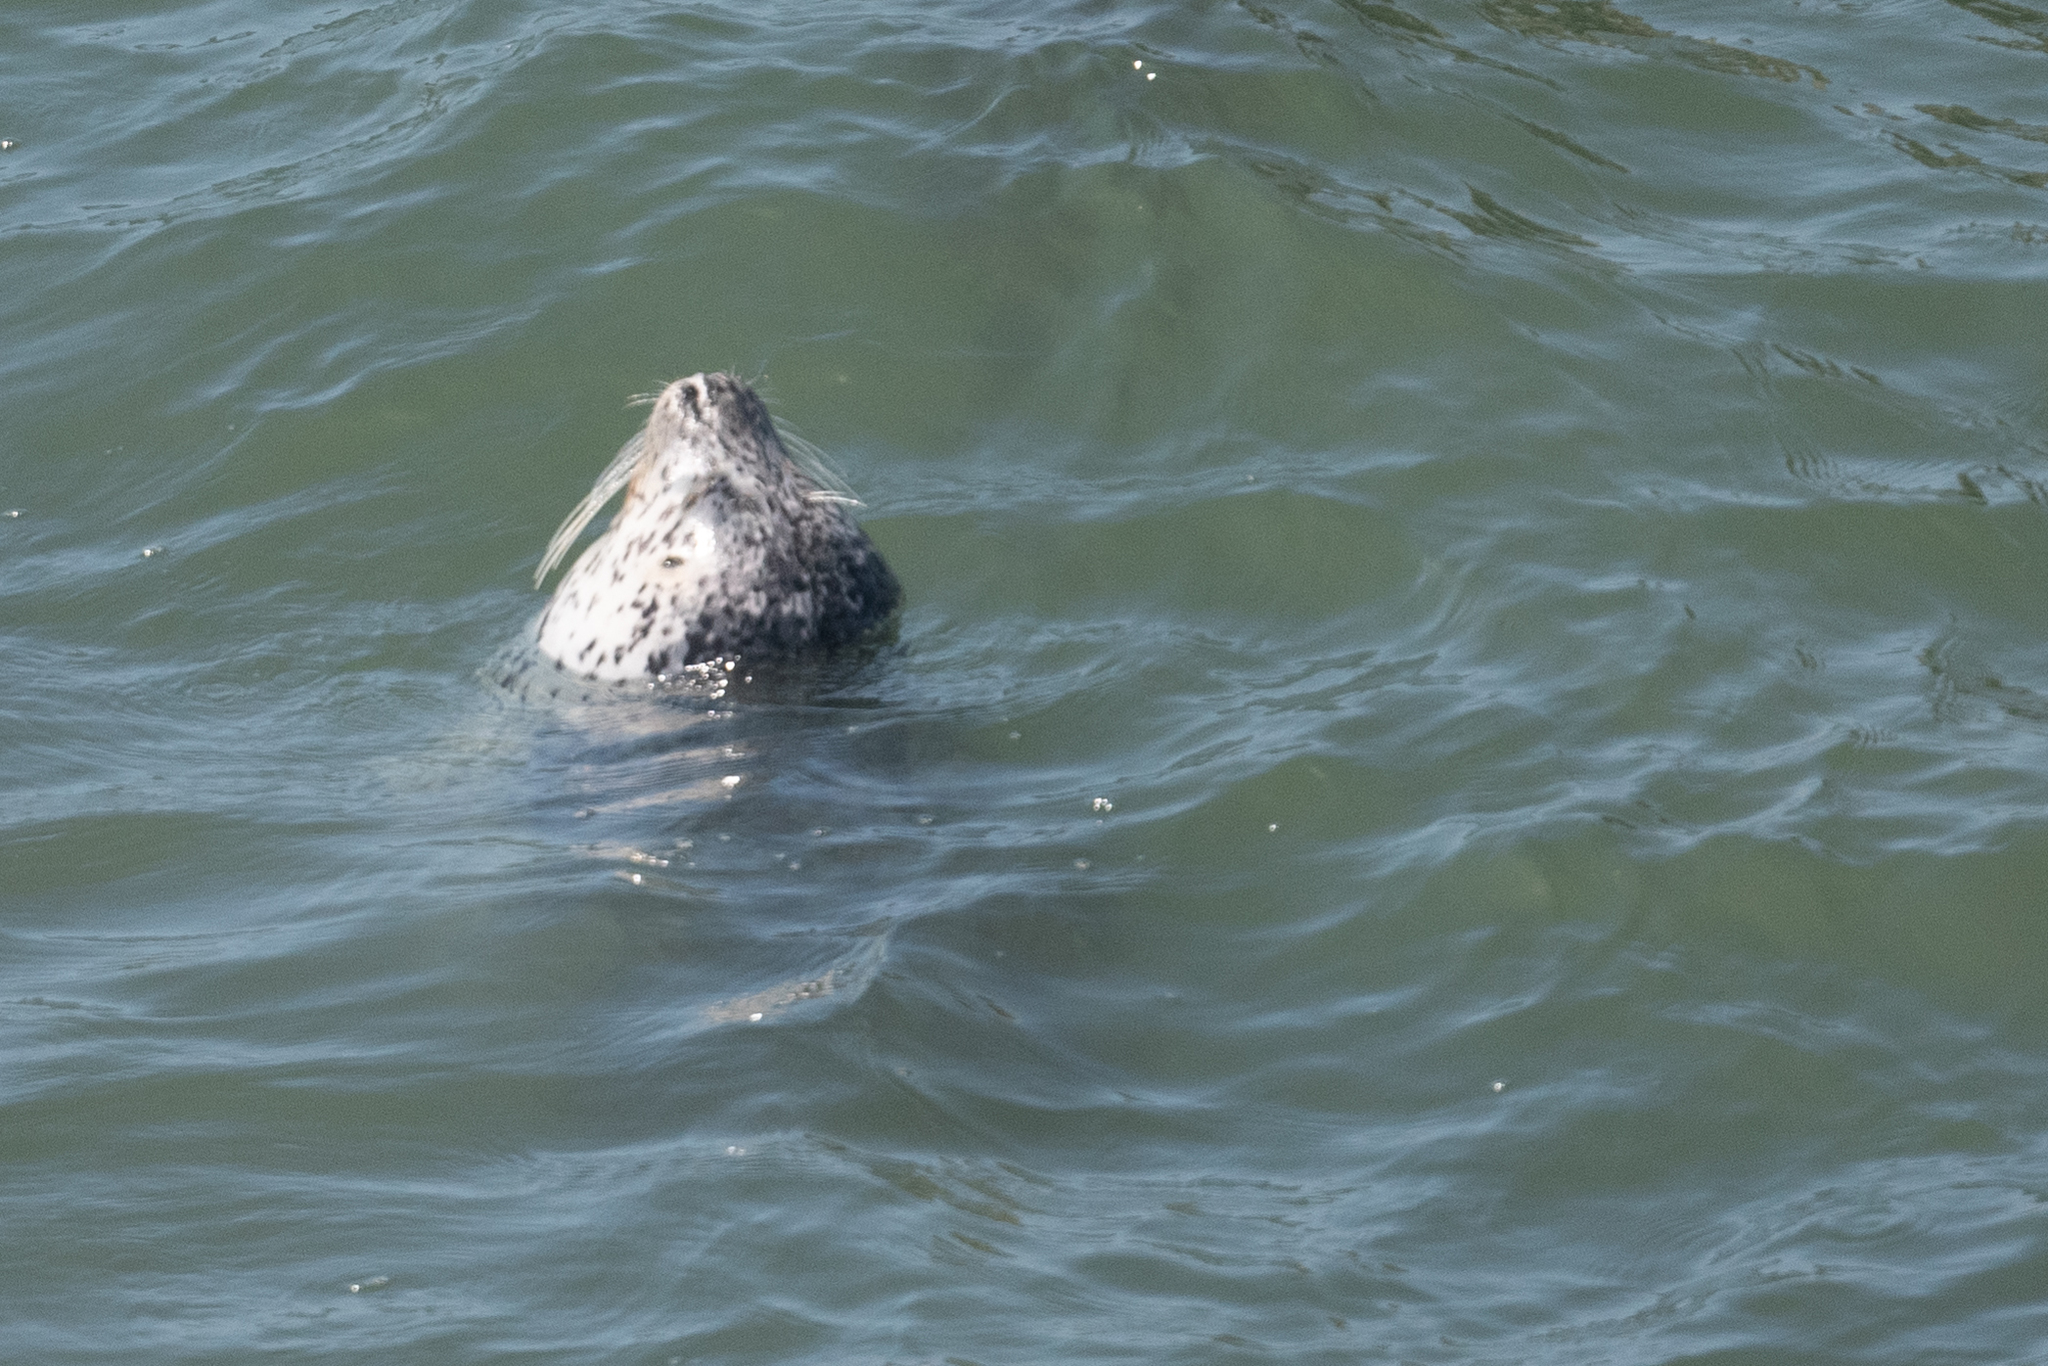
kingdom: Animalia
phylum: Chordata
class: Mammalia
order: Carnivora
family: Phocidae
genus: Phoca
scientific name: Phoca vitulina
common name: Harbor seal
